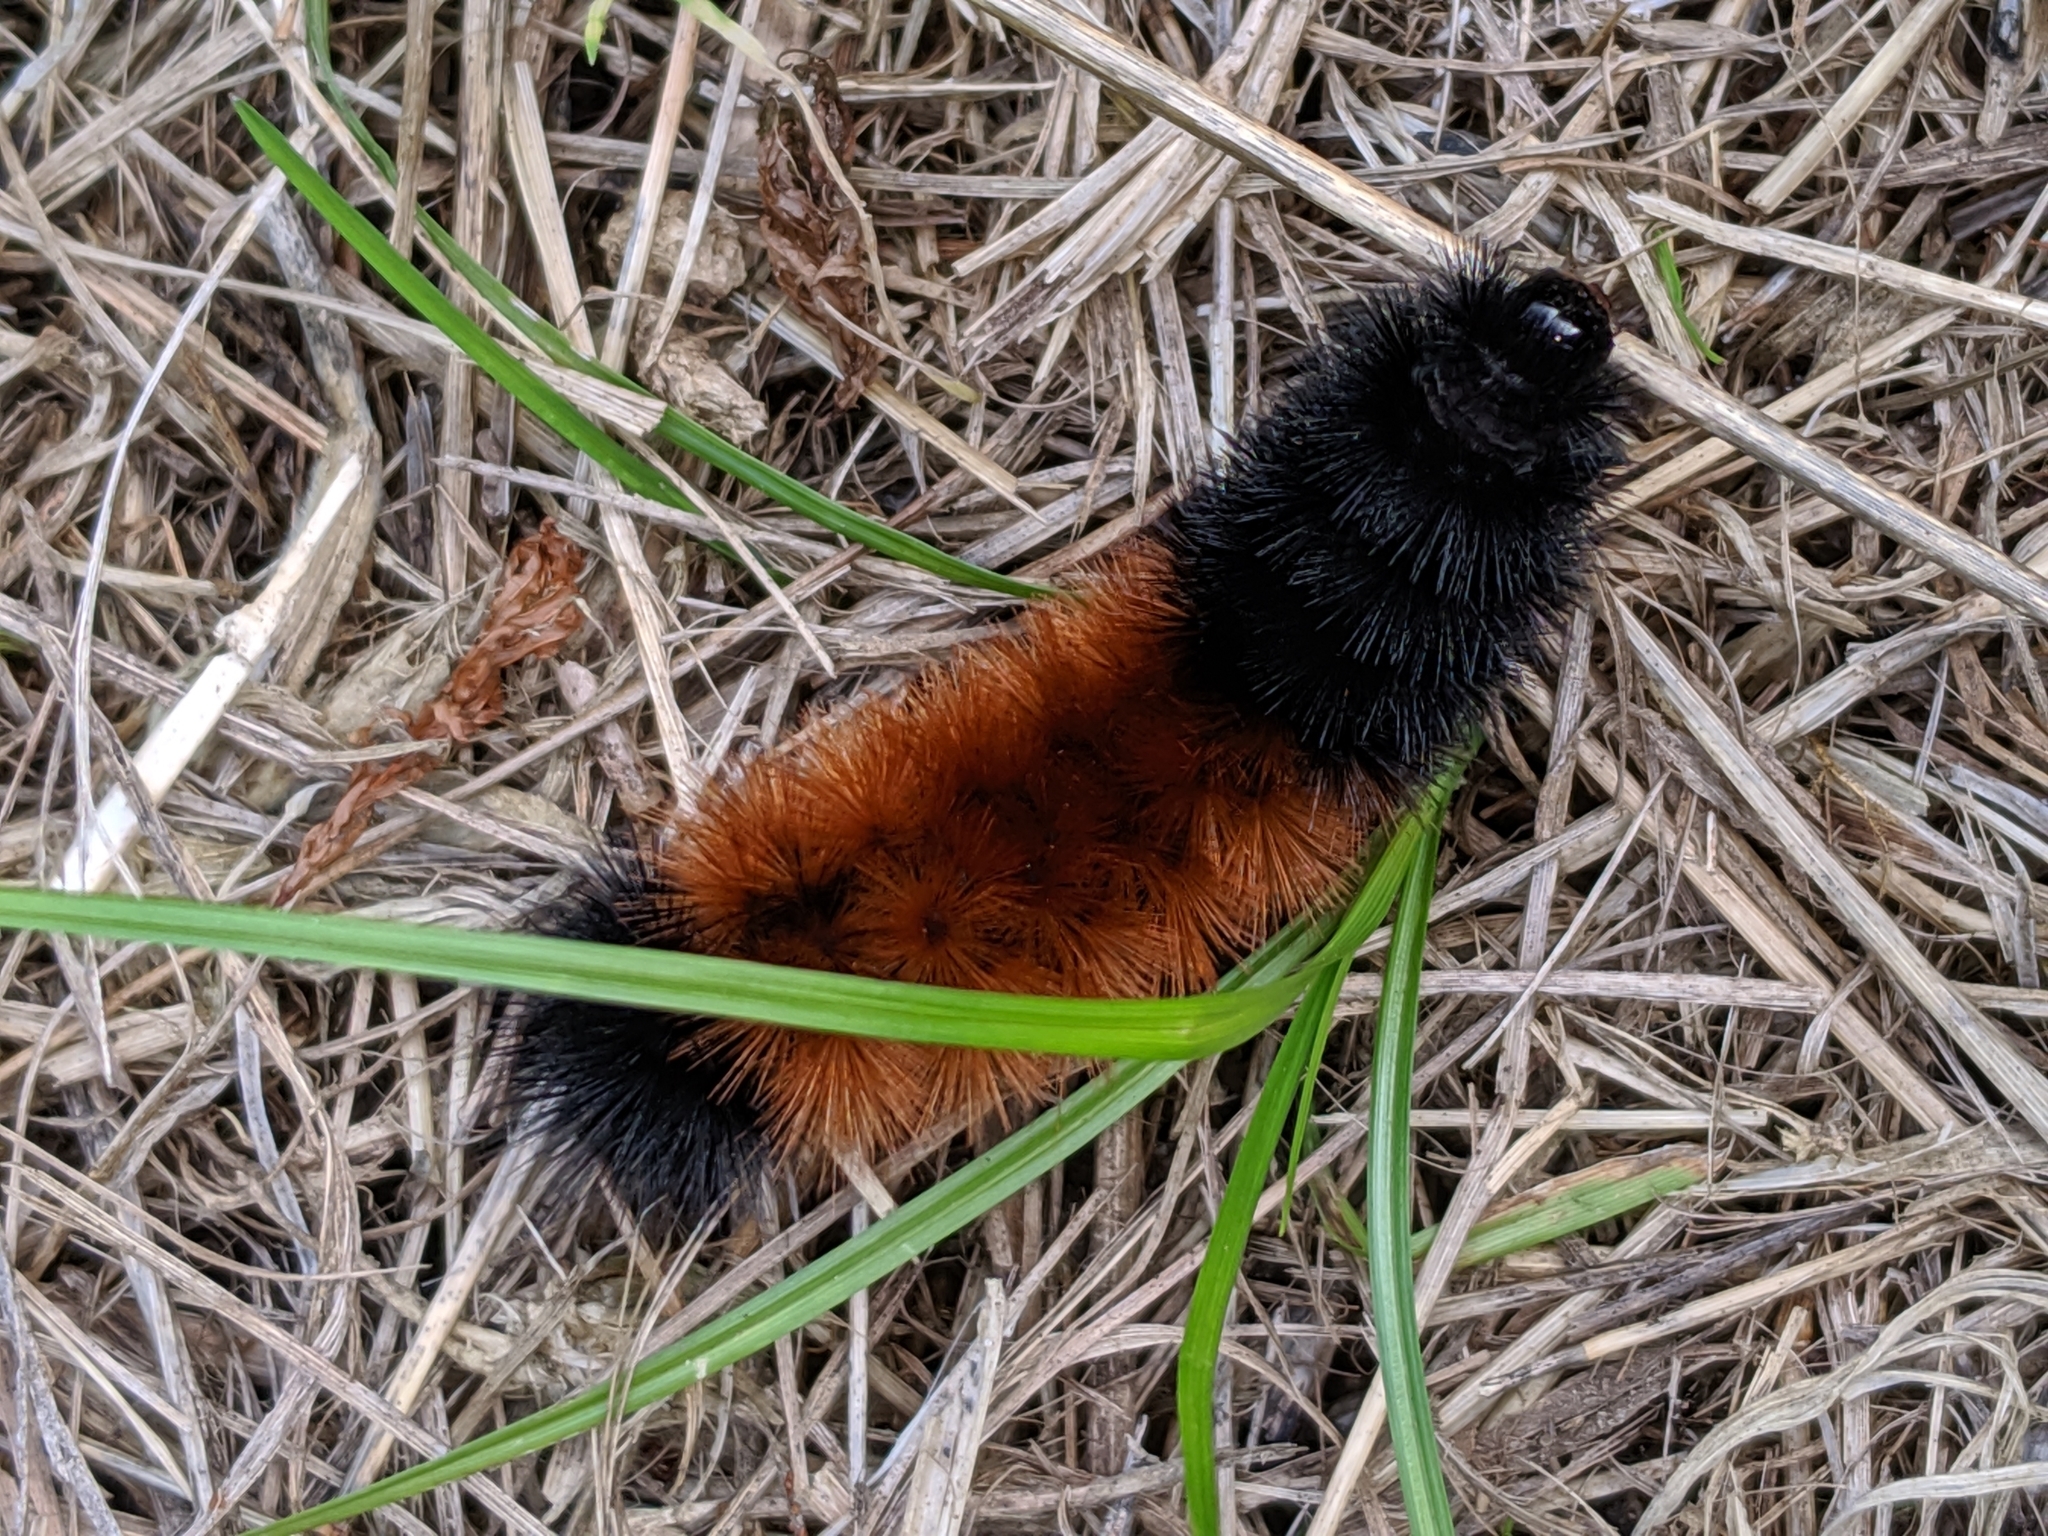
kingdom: Animalia
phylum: Arthropoda
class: Insecta
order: Lepidoptera
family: Erebidae
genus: Pyrrharctia
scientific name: Pyrrharctia isabella
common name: Isabella tiger moth
